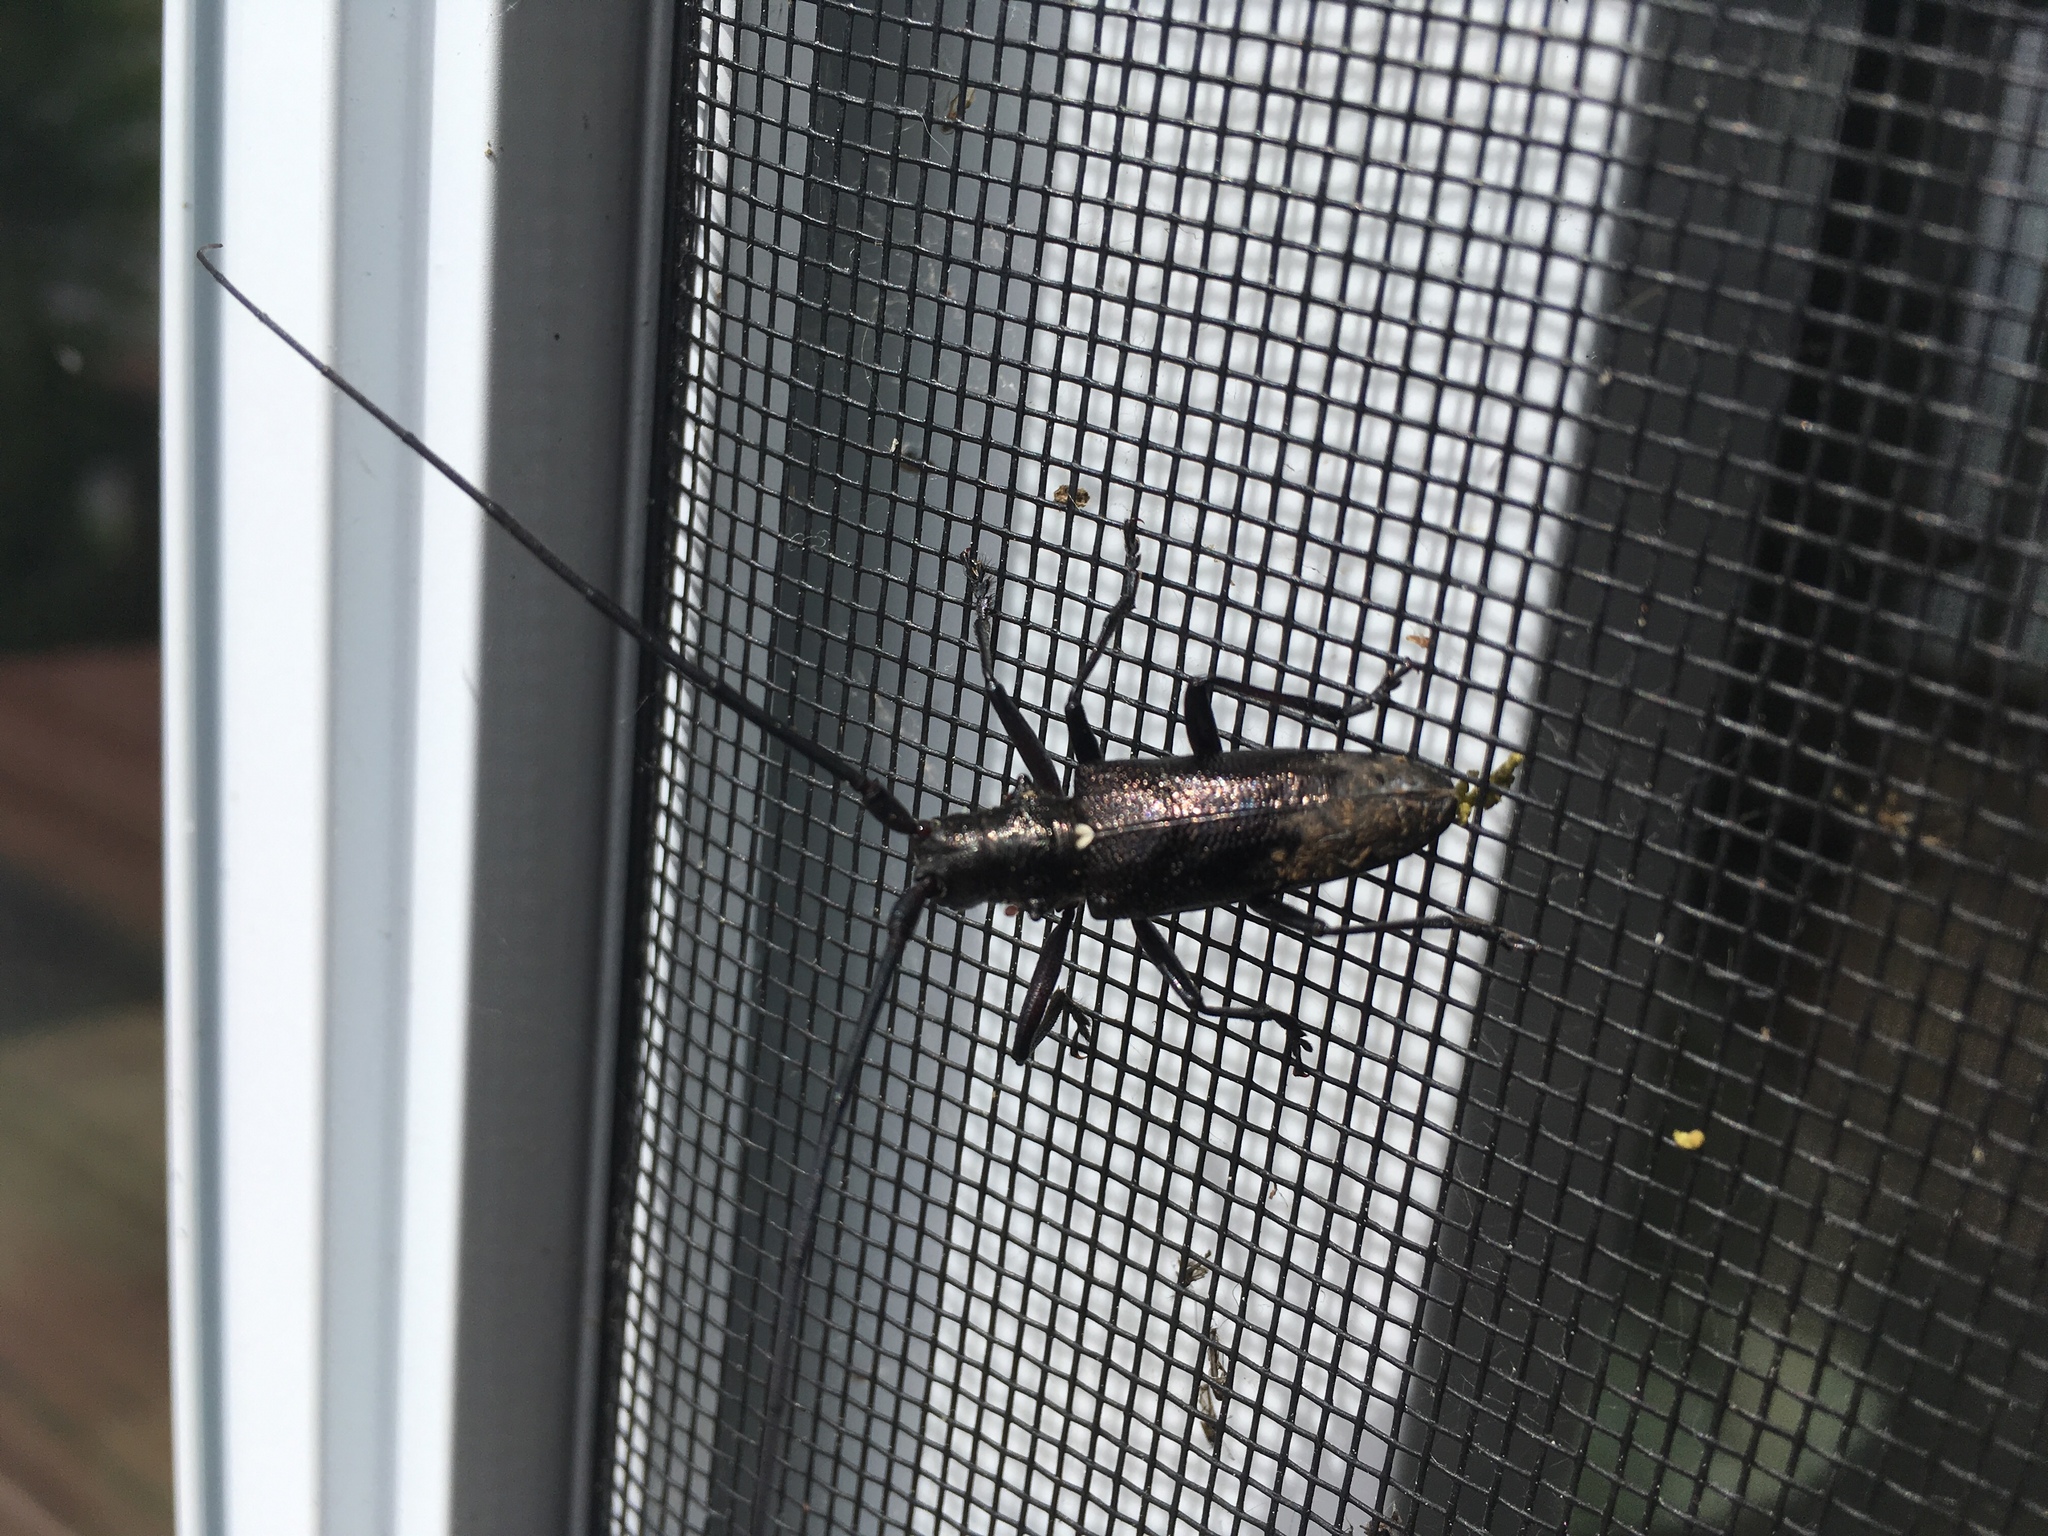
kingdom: Animalia
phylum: Arthropoda
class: Insecta
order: Coleoptera
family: Cerambycidae
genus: Monochamus
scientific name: Monochamus scutellatus
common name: White-spotted sawyer beetle
